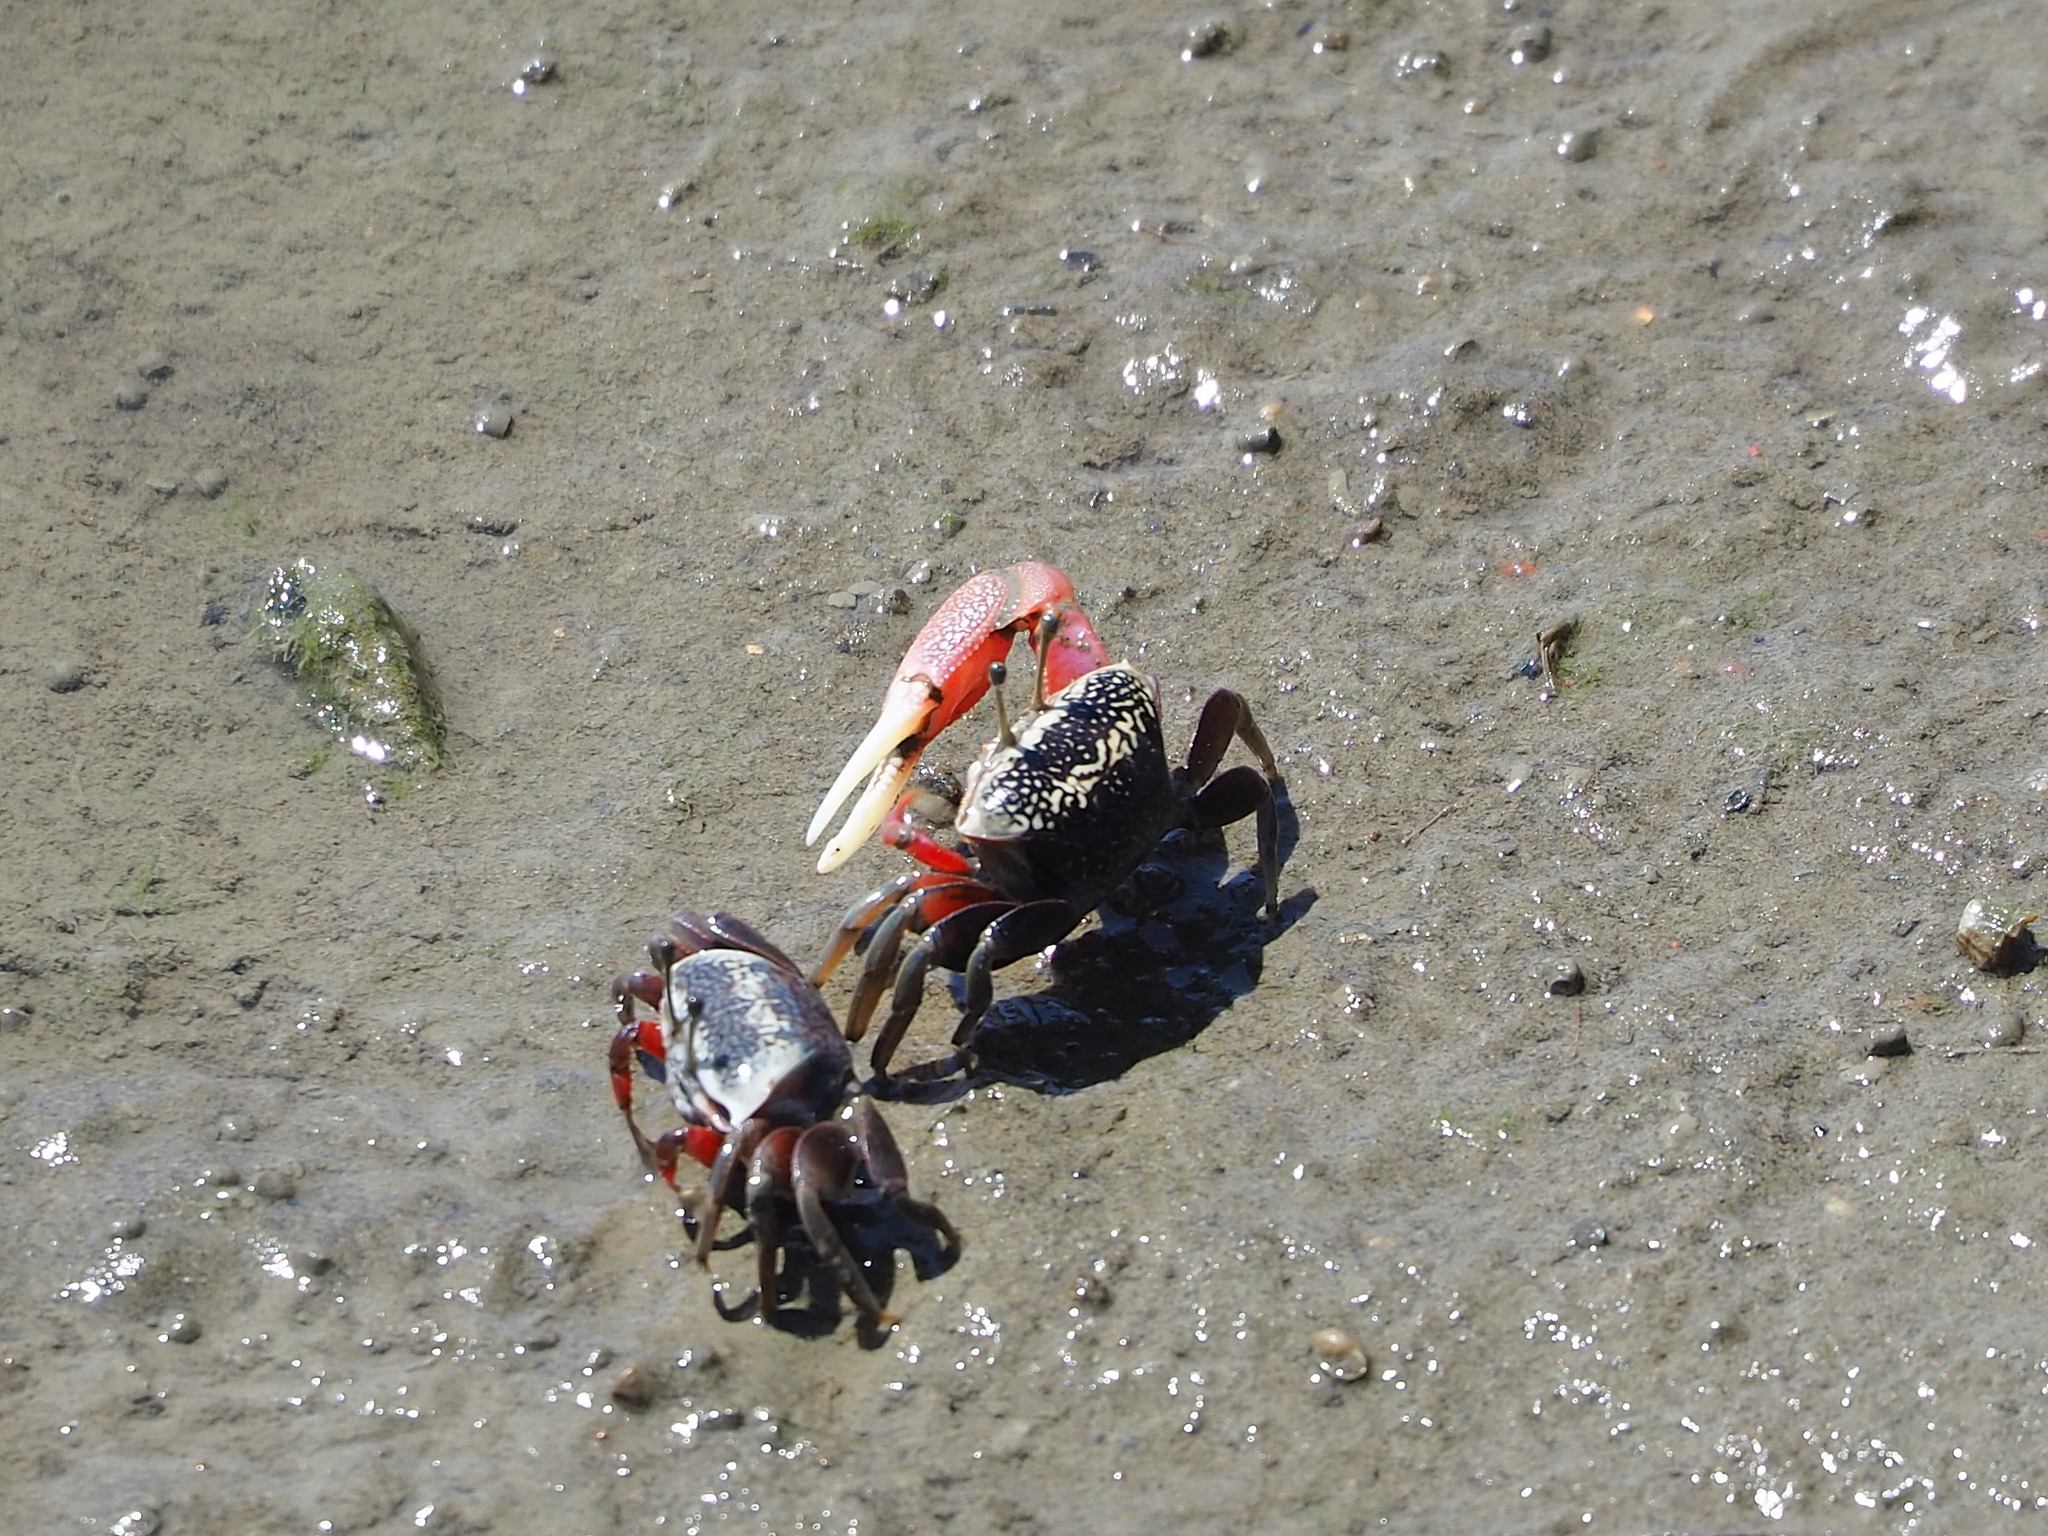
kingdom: Animalia
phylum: Arthropoda
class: Malacostraca
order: Decapoda
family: Ocypodidae
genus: Tubuca
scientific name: Tubuca arcuata
